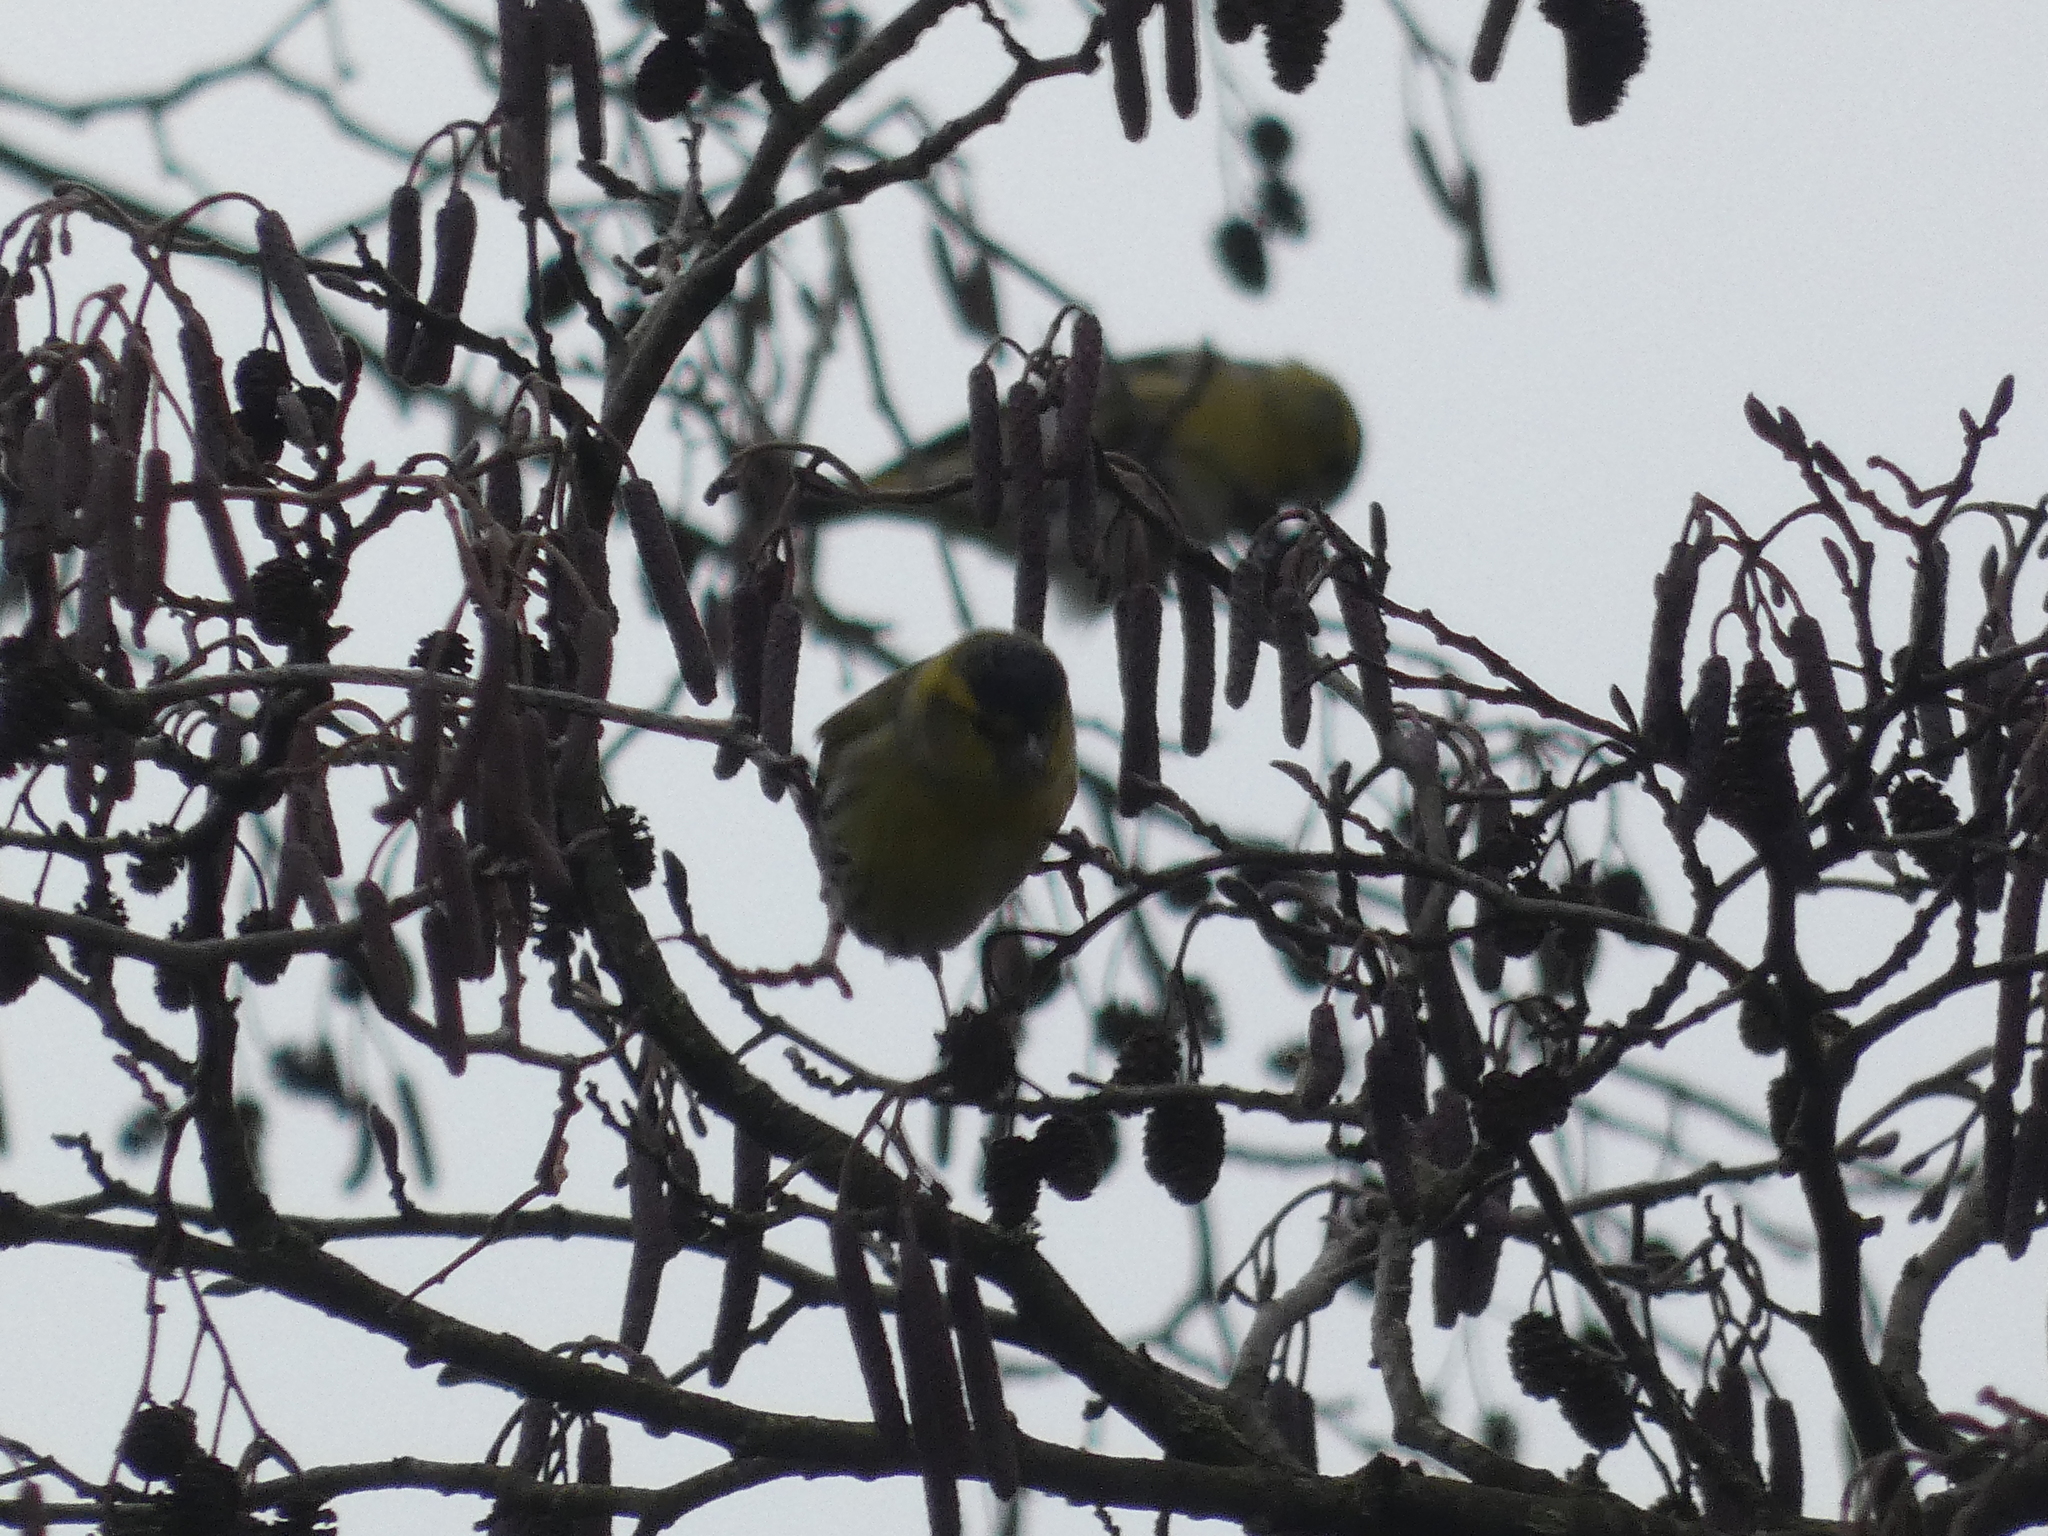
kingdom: Animalia
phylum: Chordata
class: Aves
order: Passeriformes
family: Fringillidae
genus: Spinus
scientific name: Spinus spinus
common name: Eurasian siskin
